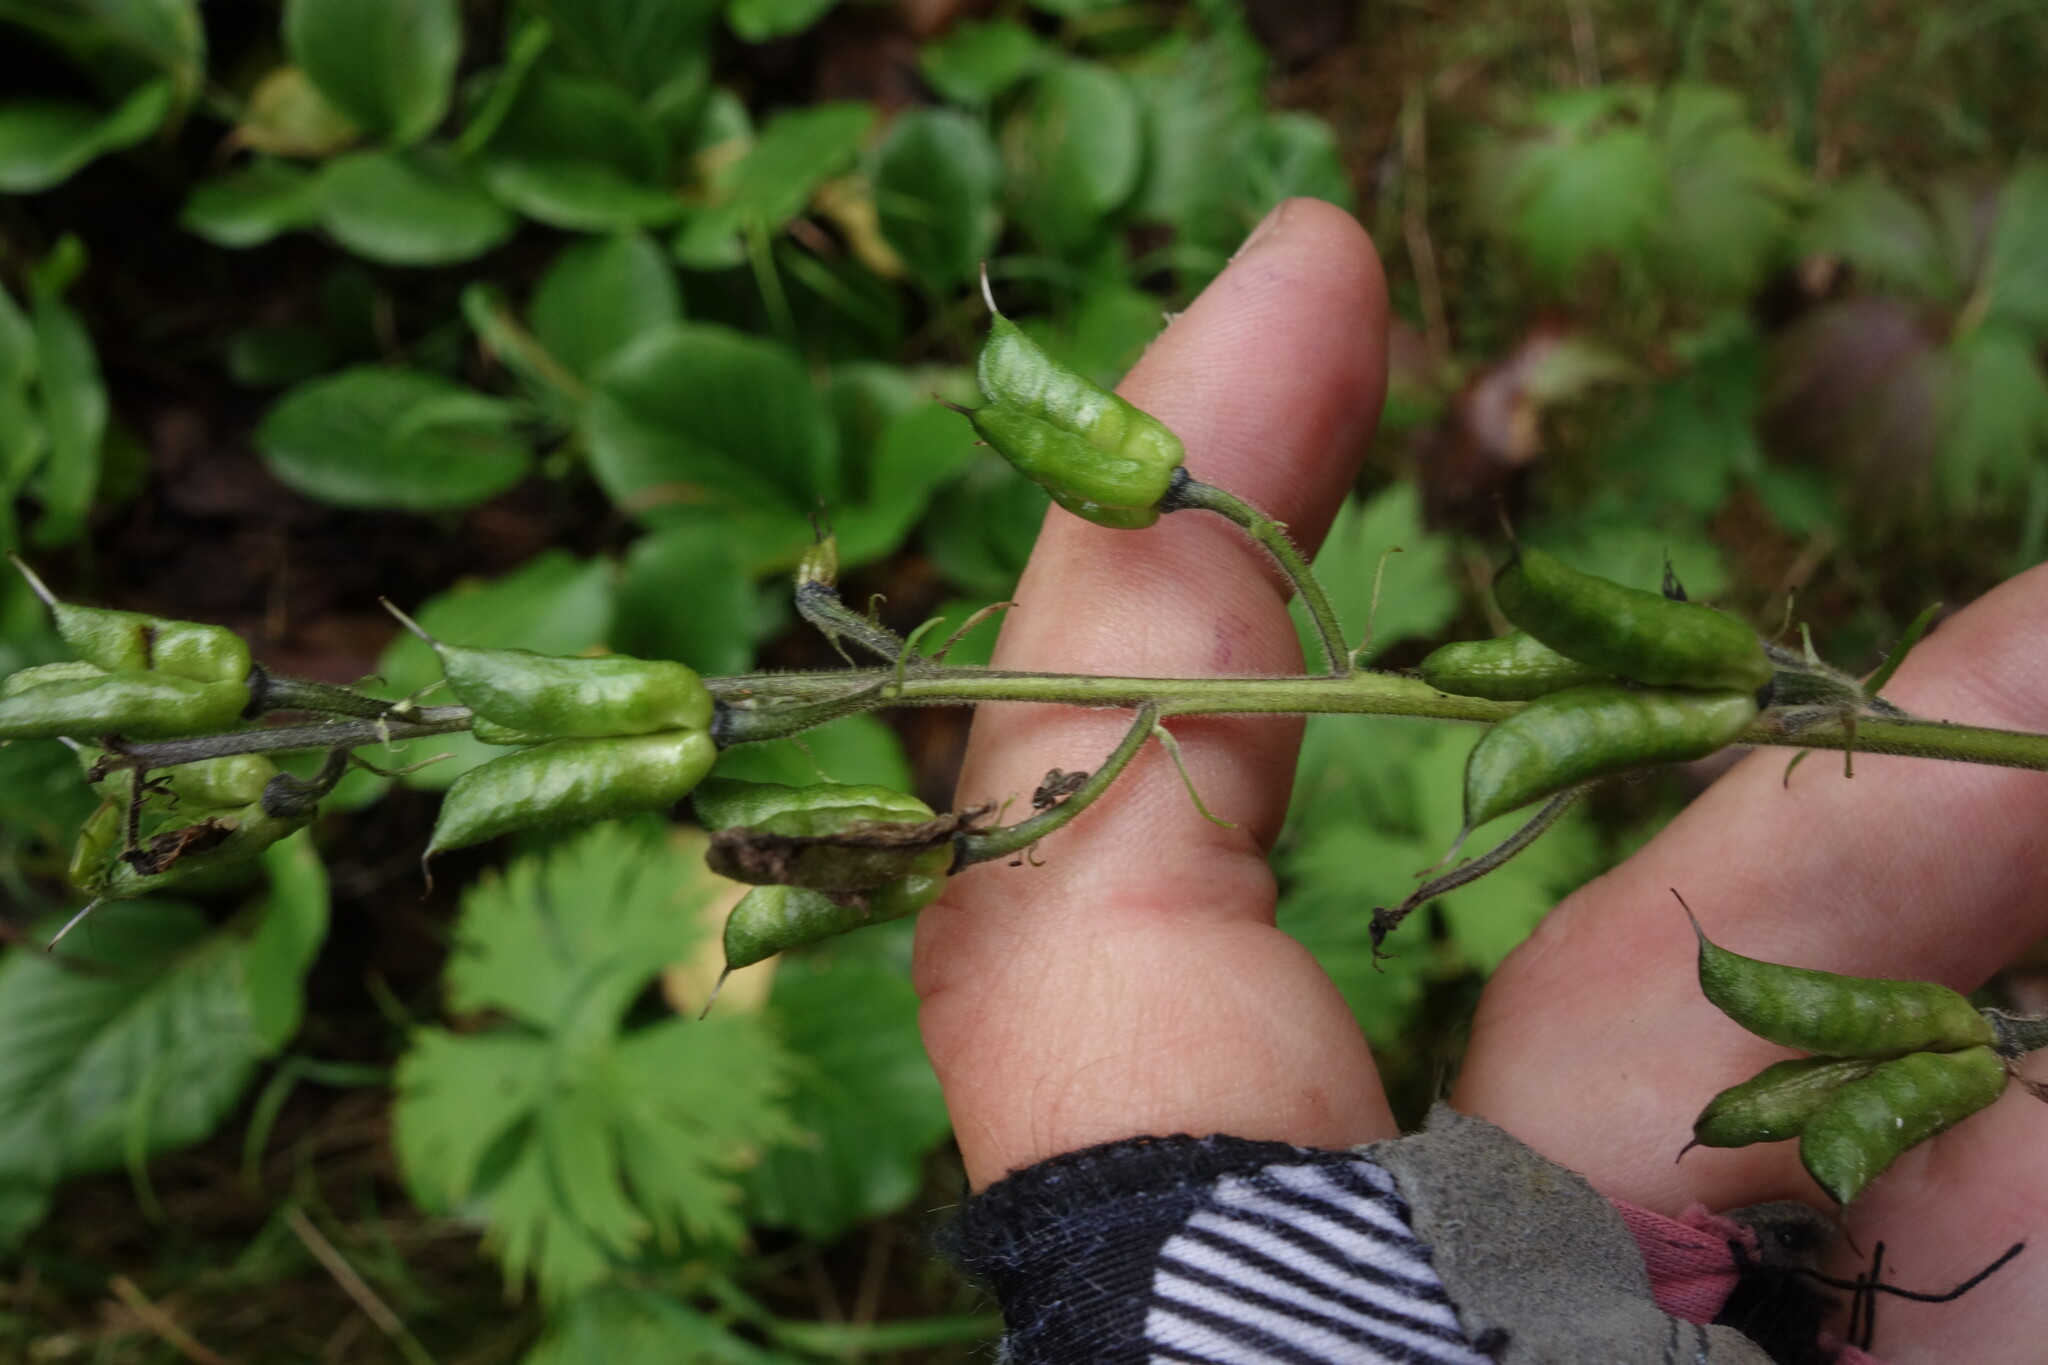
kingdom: Plantae
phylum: Tracheophyta
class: Magnoliopsida
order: Ranunculales
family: Ranunculaceae
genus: Aconitum
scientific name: Aconitum septentrionale
